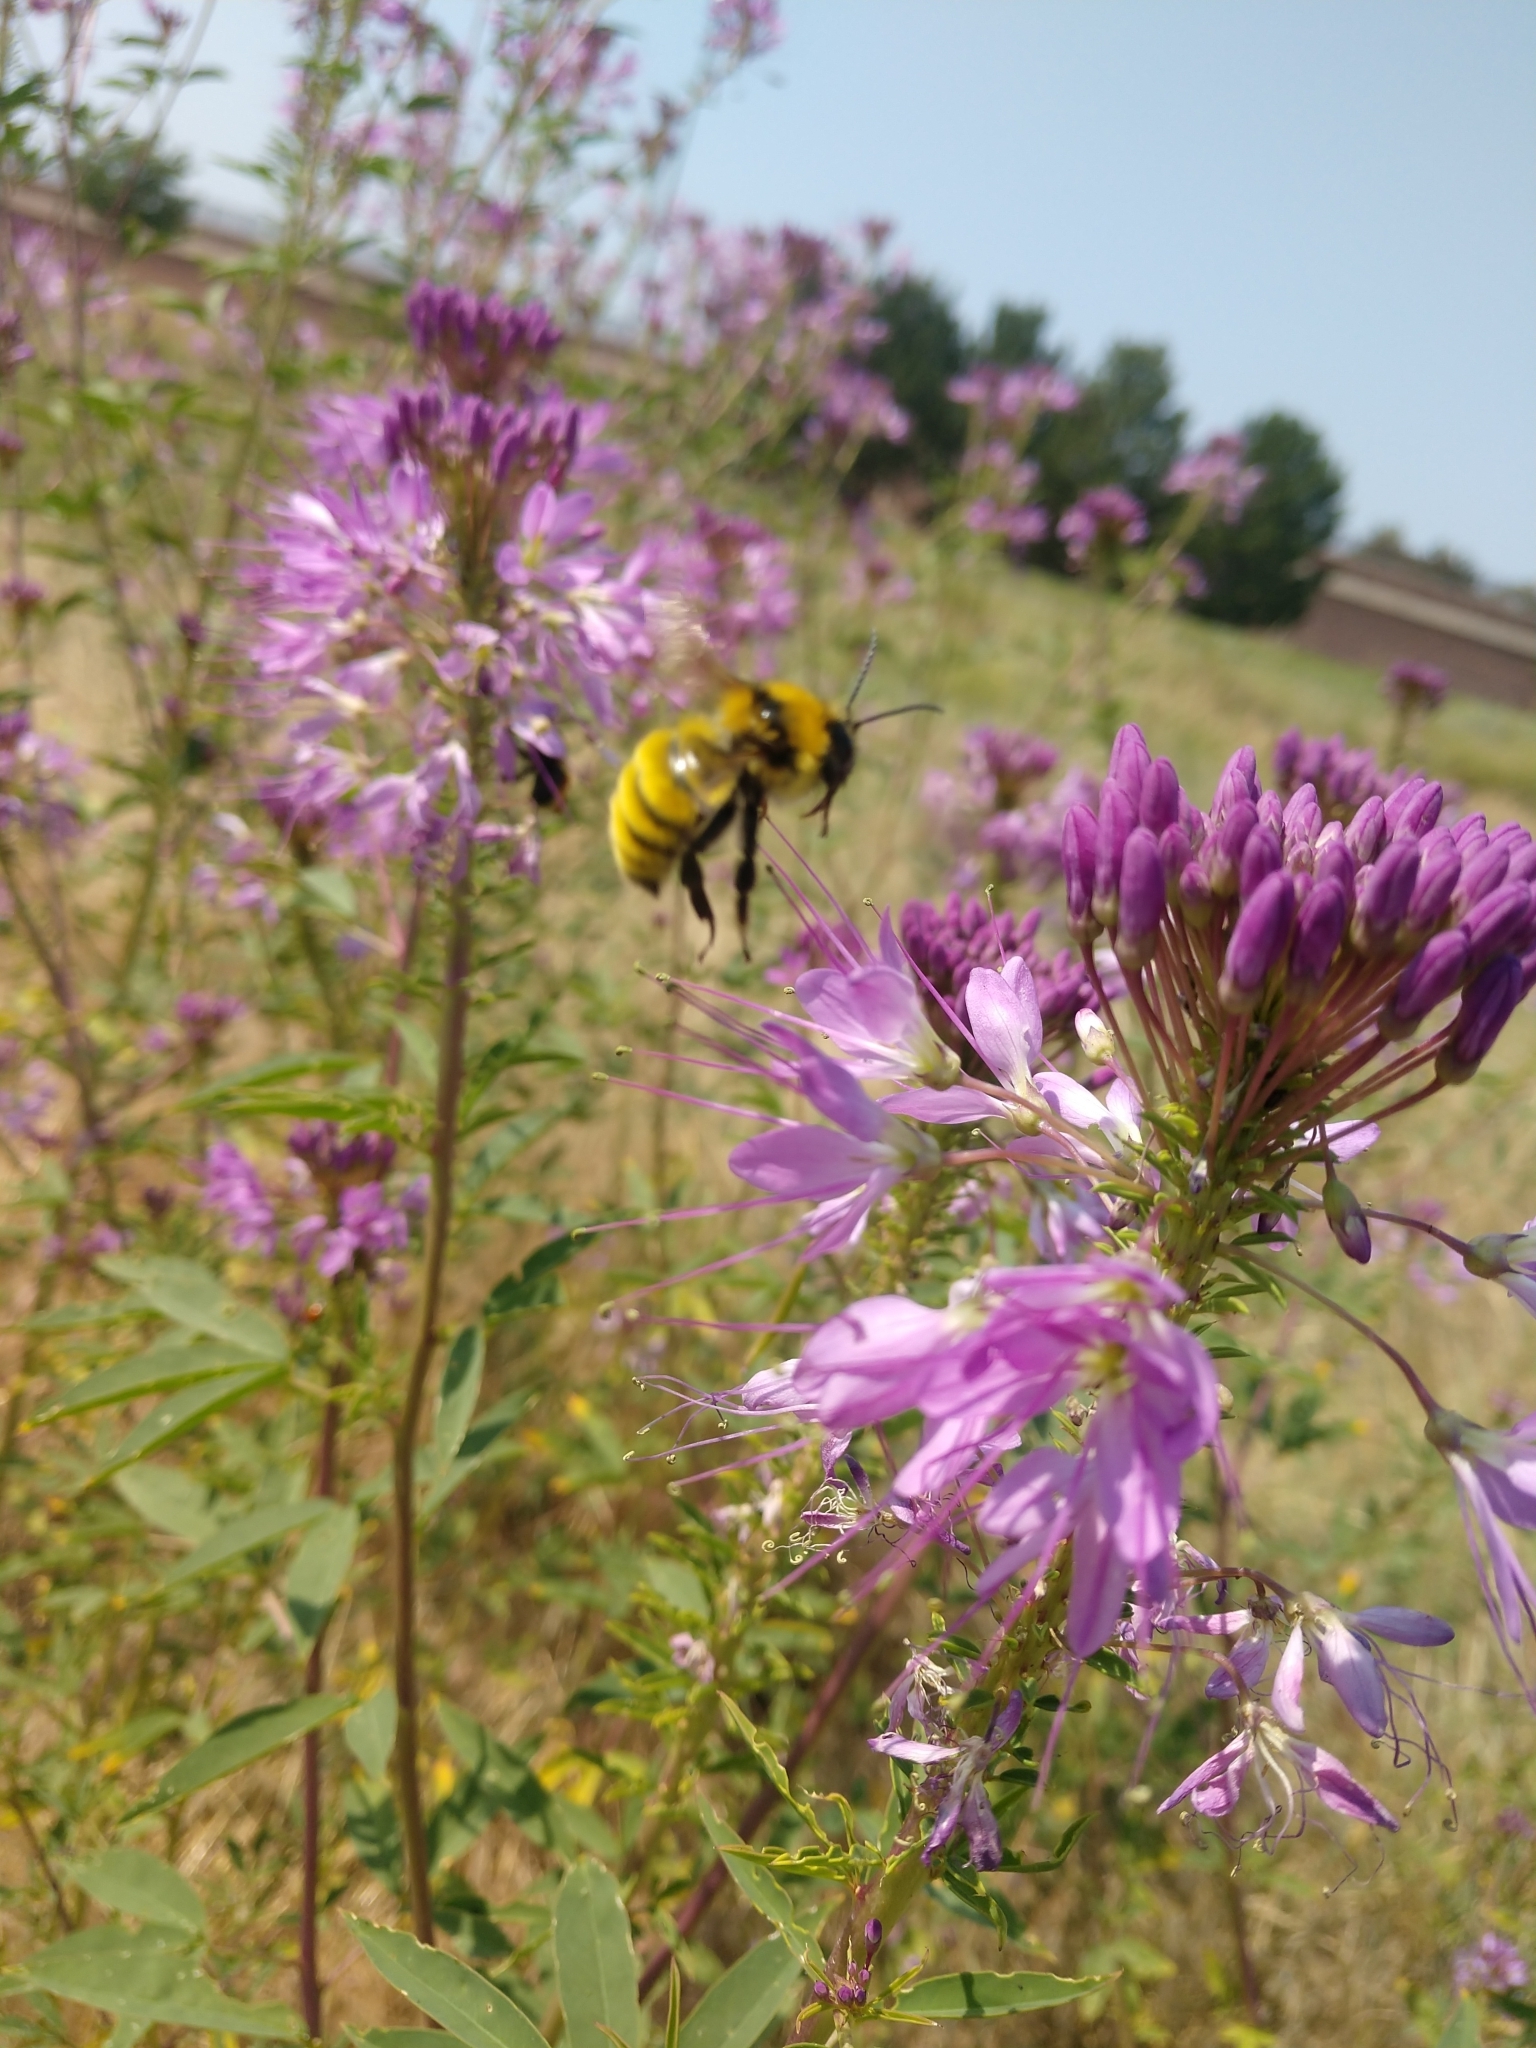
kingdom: Animalia
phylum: Arthropoda
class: Insecta
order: Hymenoptera
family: Apidae
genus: Bombus
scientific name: Bombus fervidus
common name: Yellow bumble bee
